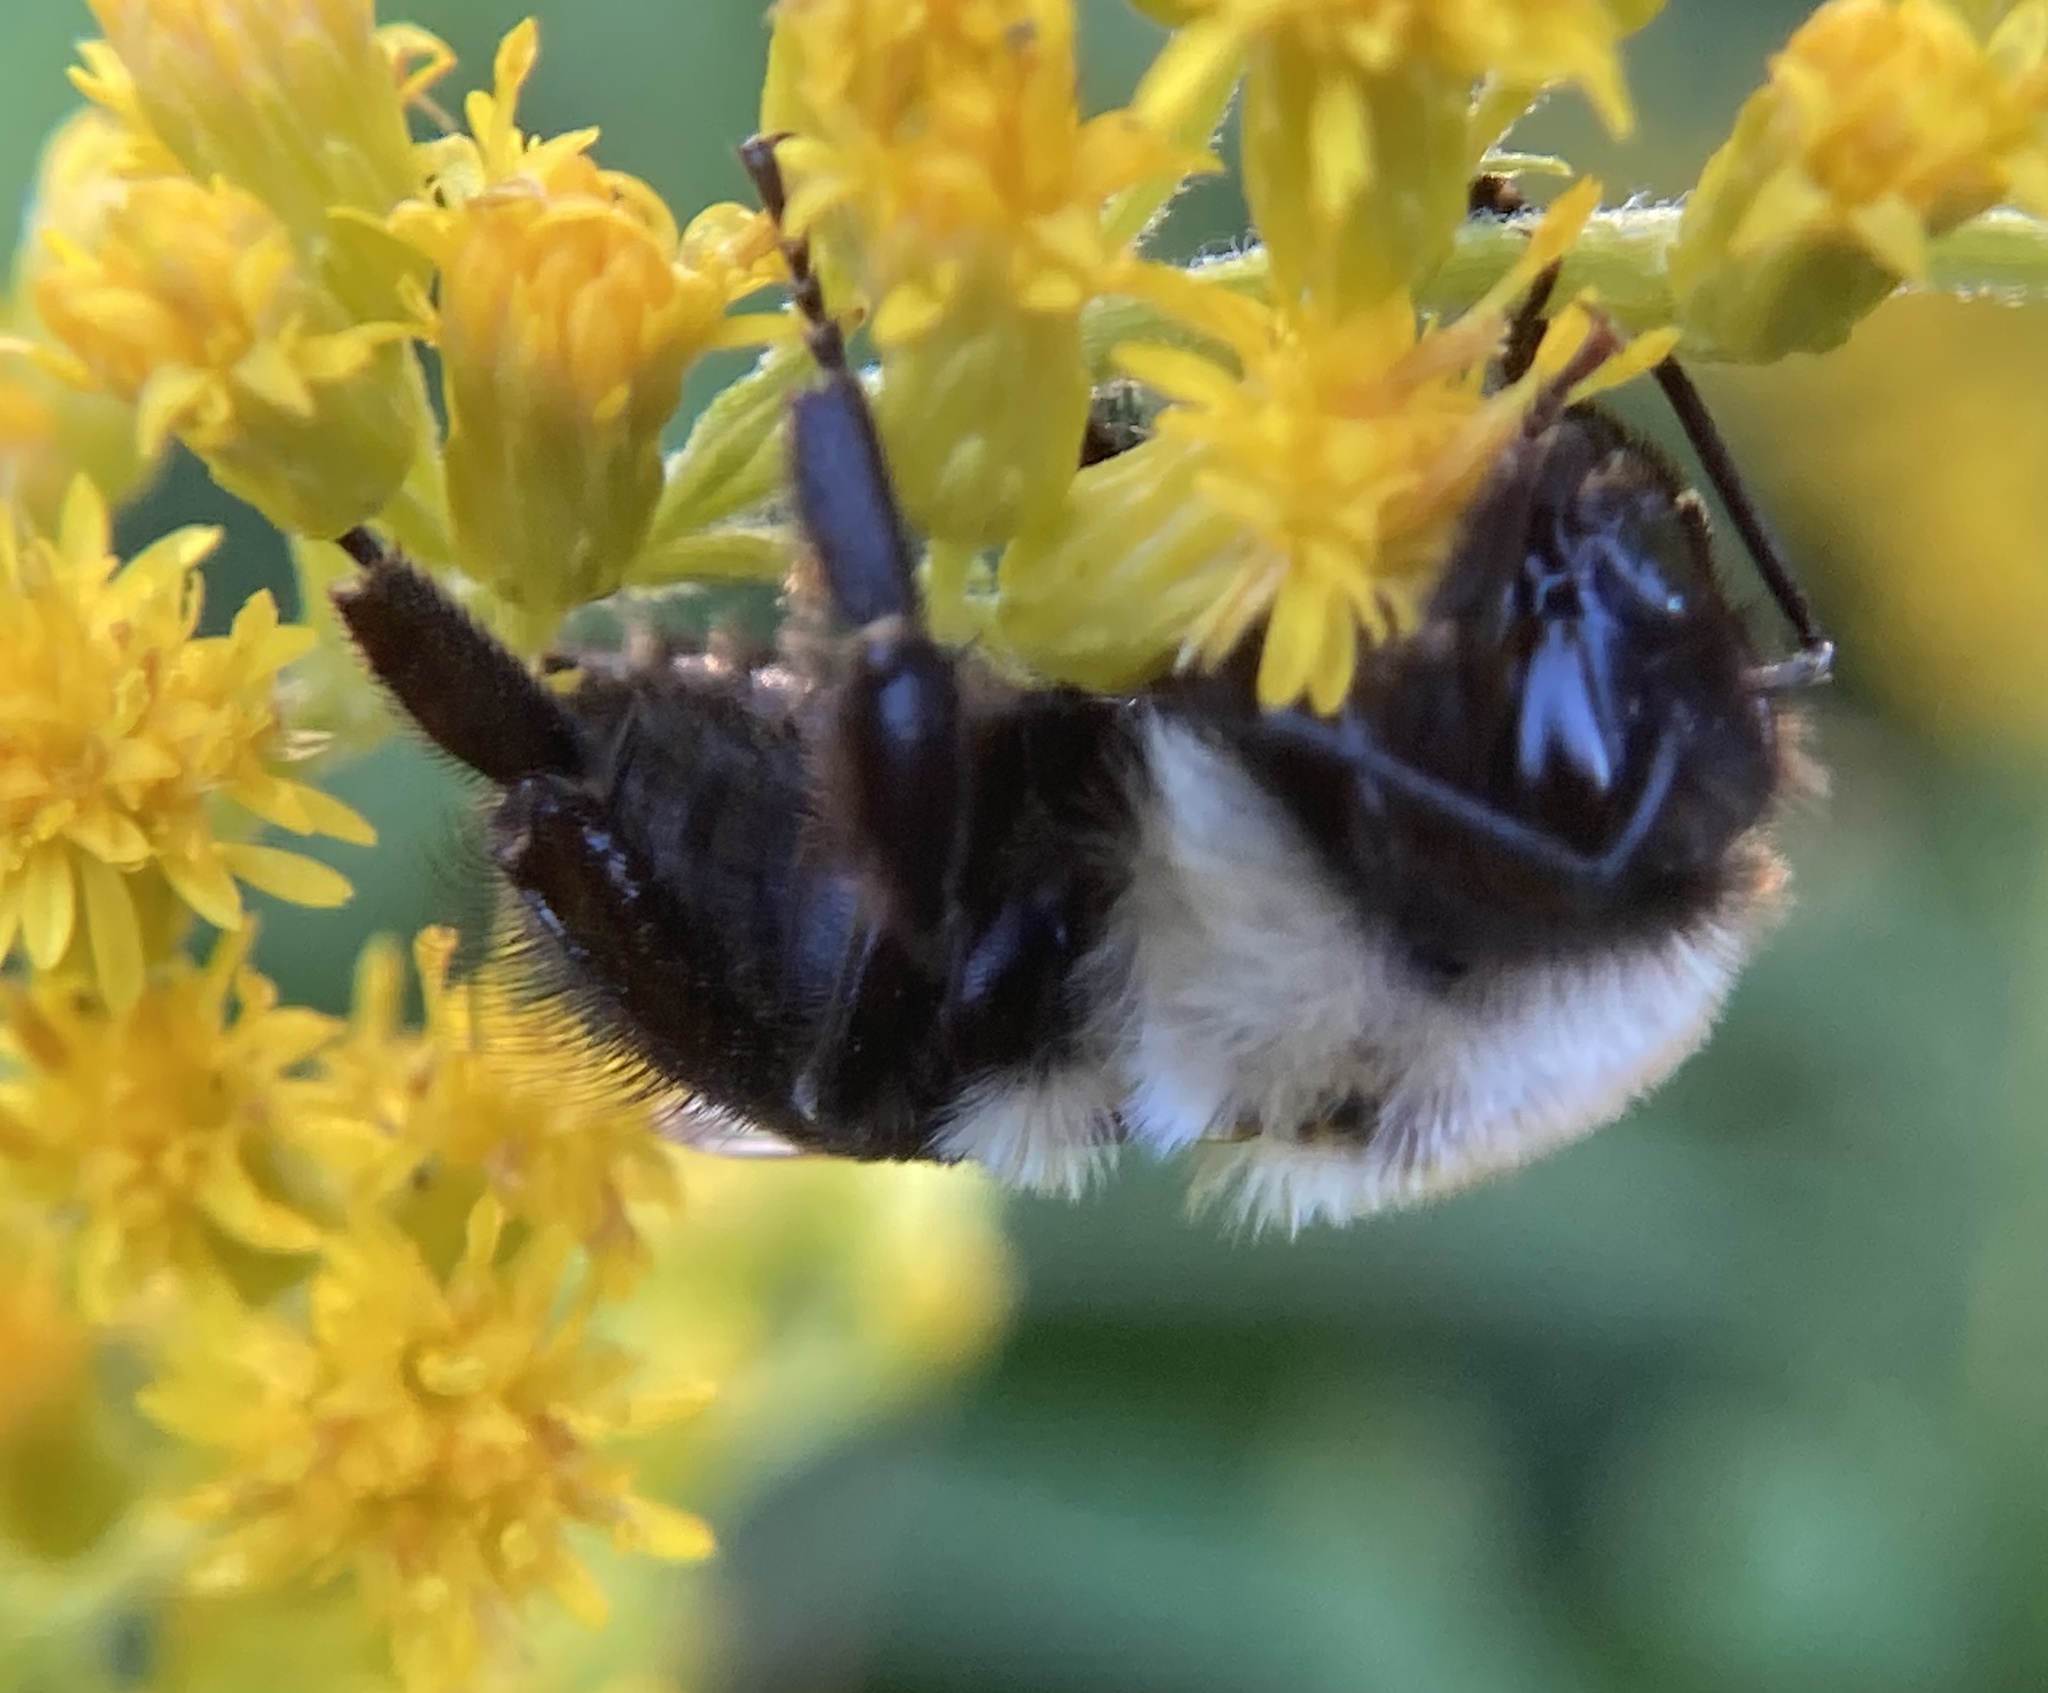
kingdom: Animalia
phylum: Arthropoda
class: Insecta
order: Hymenoptera
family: Apidae
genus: Bombus
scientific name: Bombus impatiens
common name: Common eastern bumble bee
